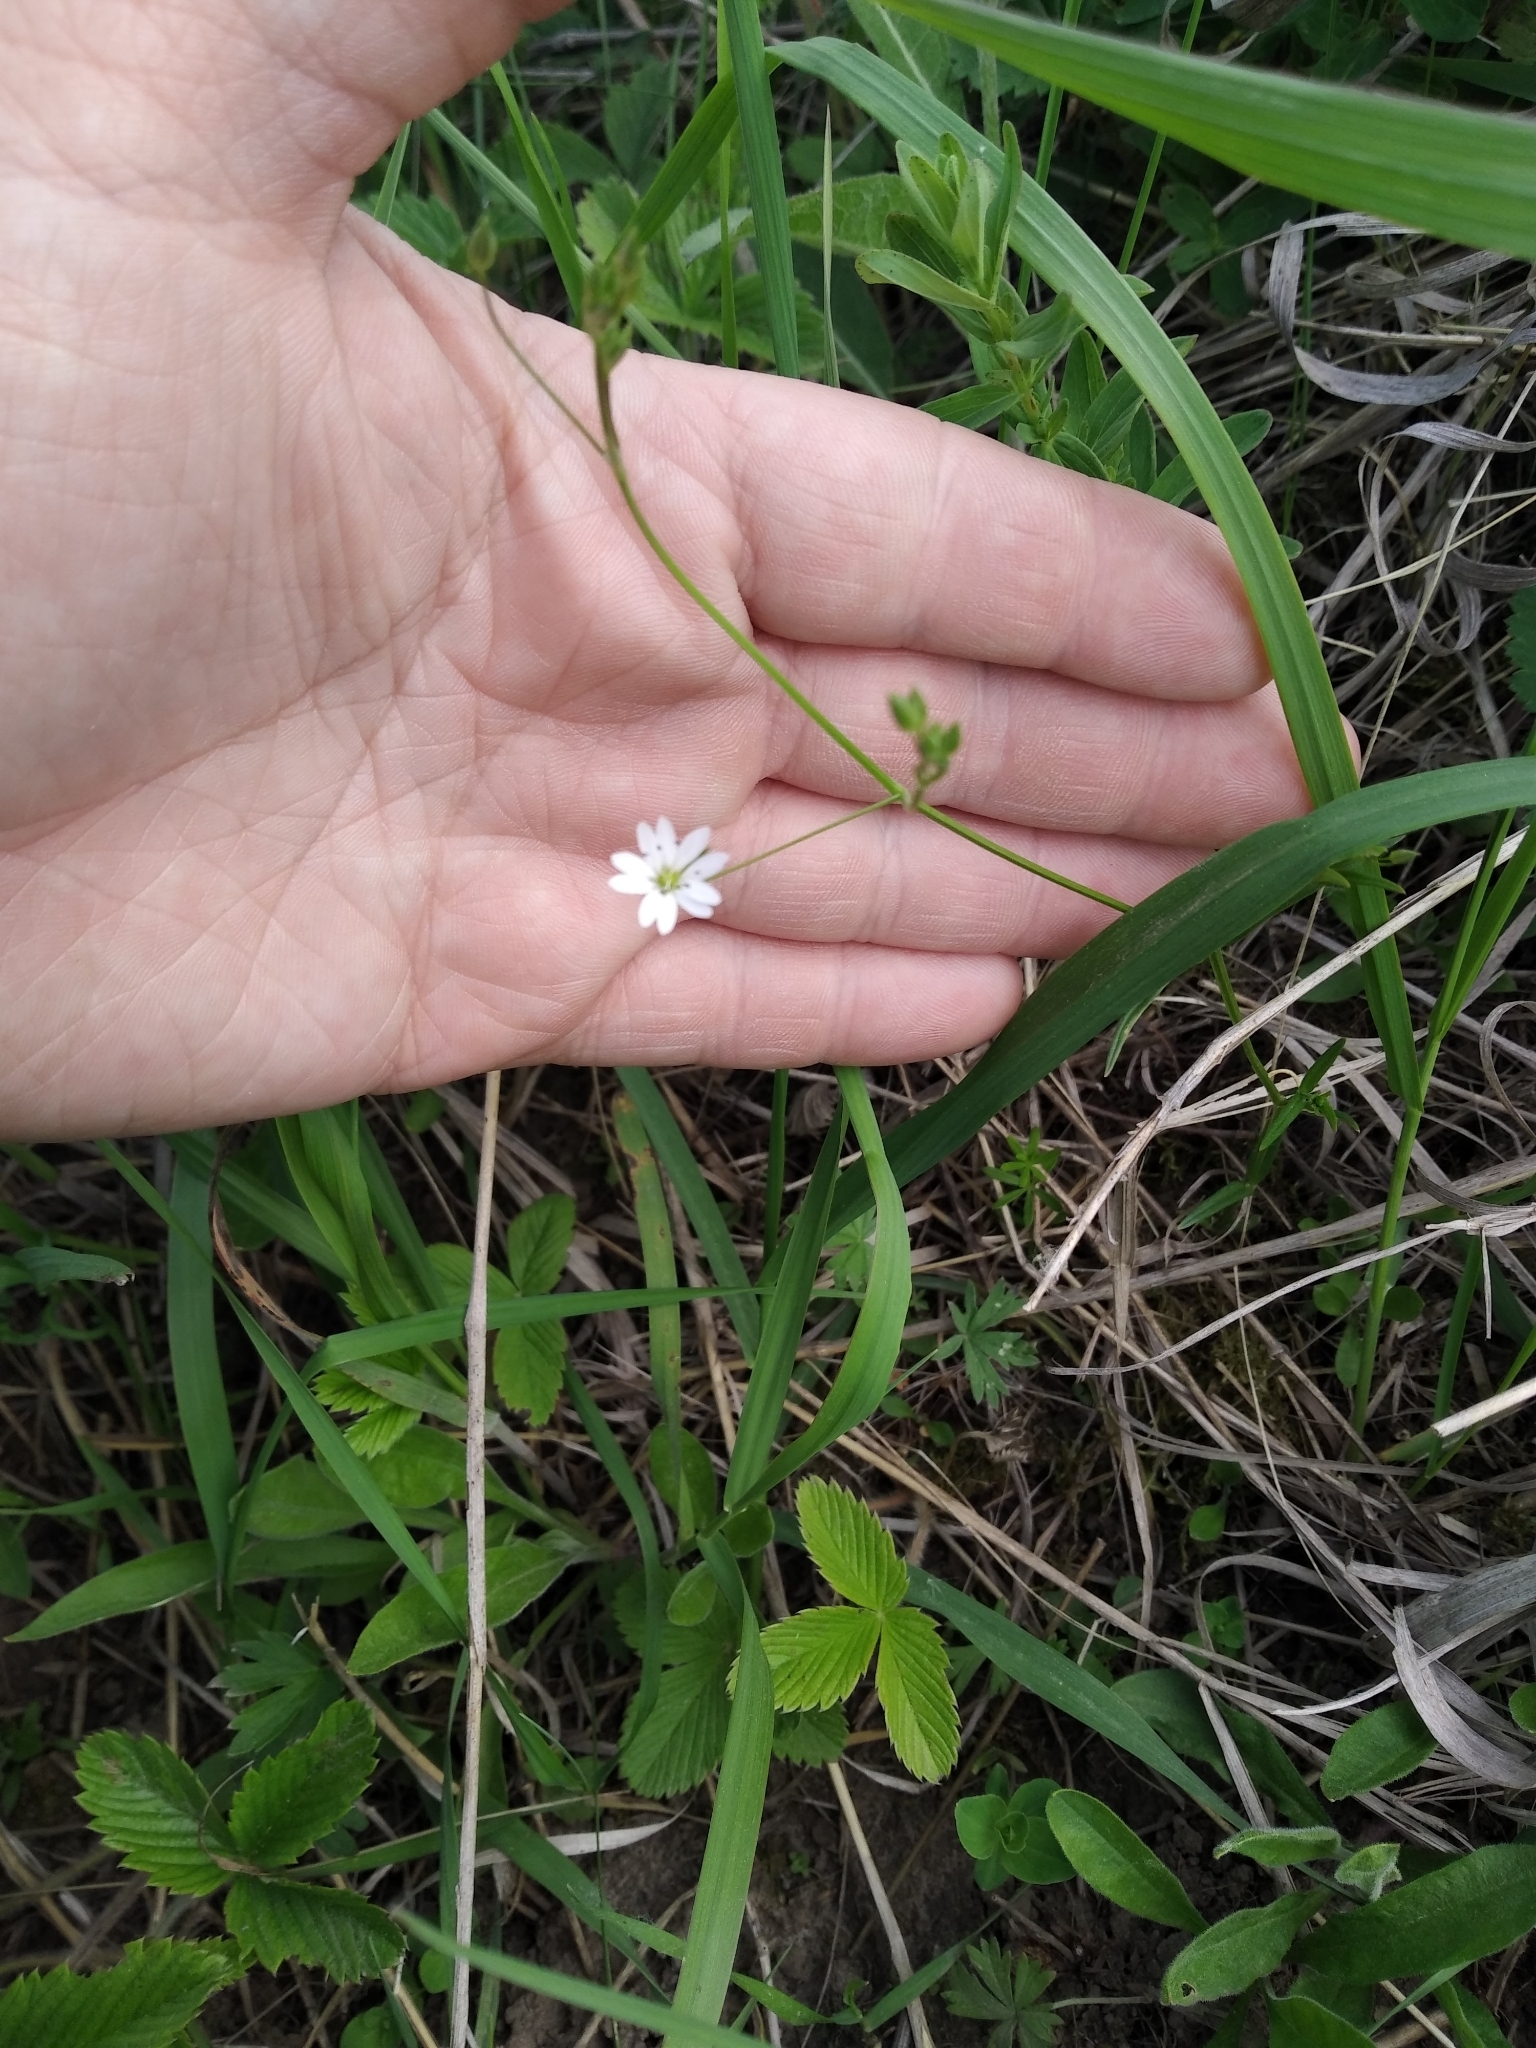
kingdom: Plantae
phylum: Tracheophyta
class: Magnoliopsida
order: Caryophyllales
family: Caryophyllaceae
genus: Stellaria
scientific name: Stellaria graminea
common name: Grass-like starwort
